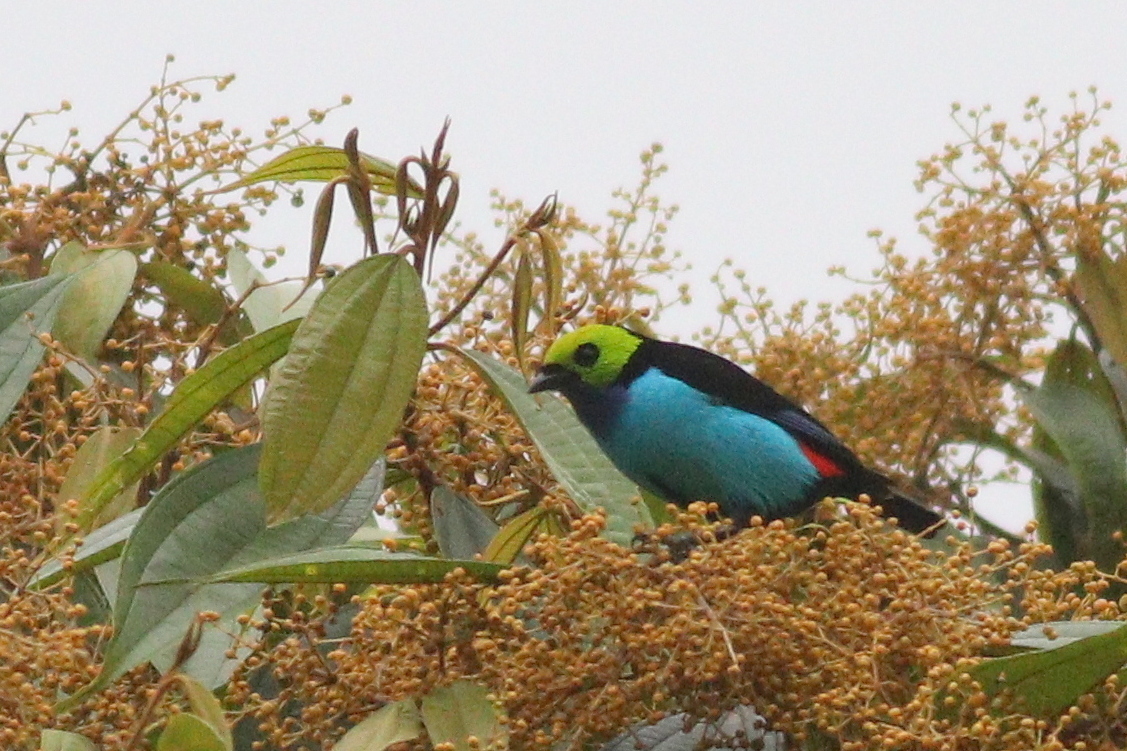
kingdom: Animalia
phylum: Chordata
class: Aves
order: Passeriformes
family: Thraupidae
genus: Tangara
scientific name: Tangara chilensis
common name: Paradise tanager
